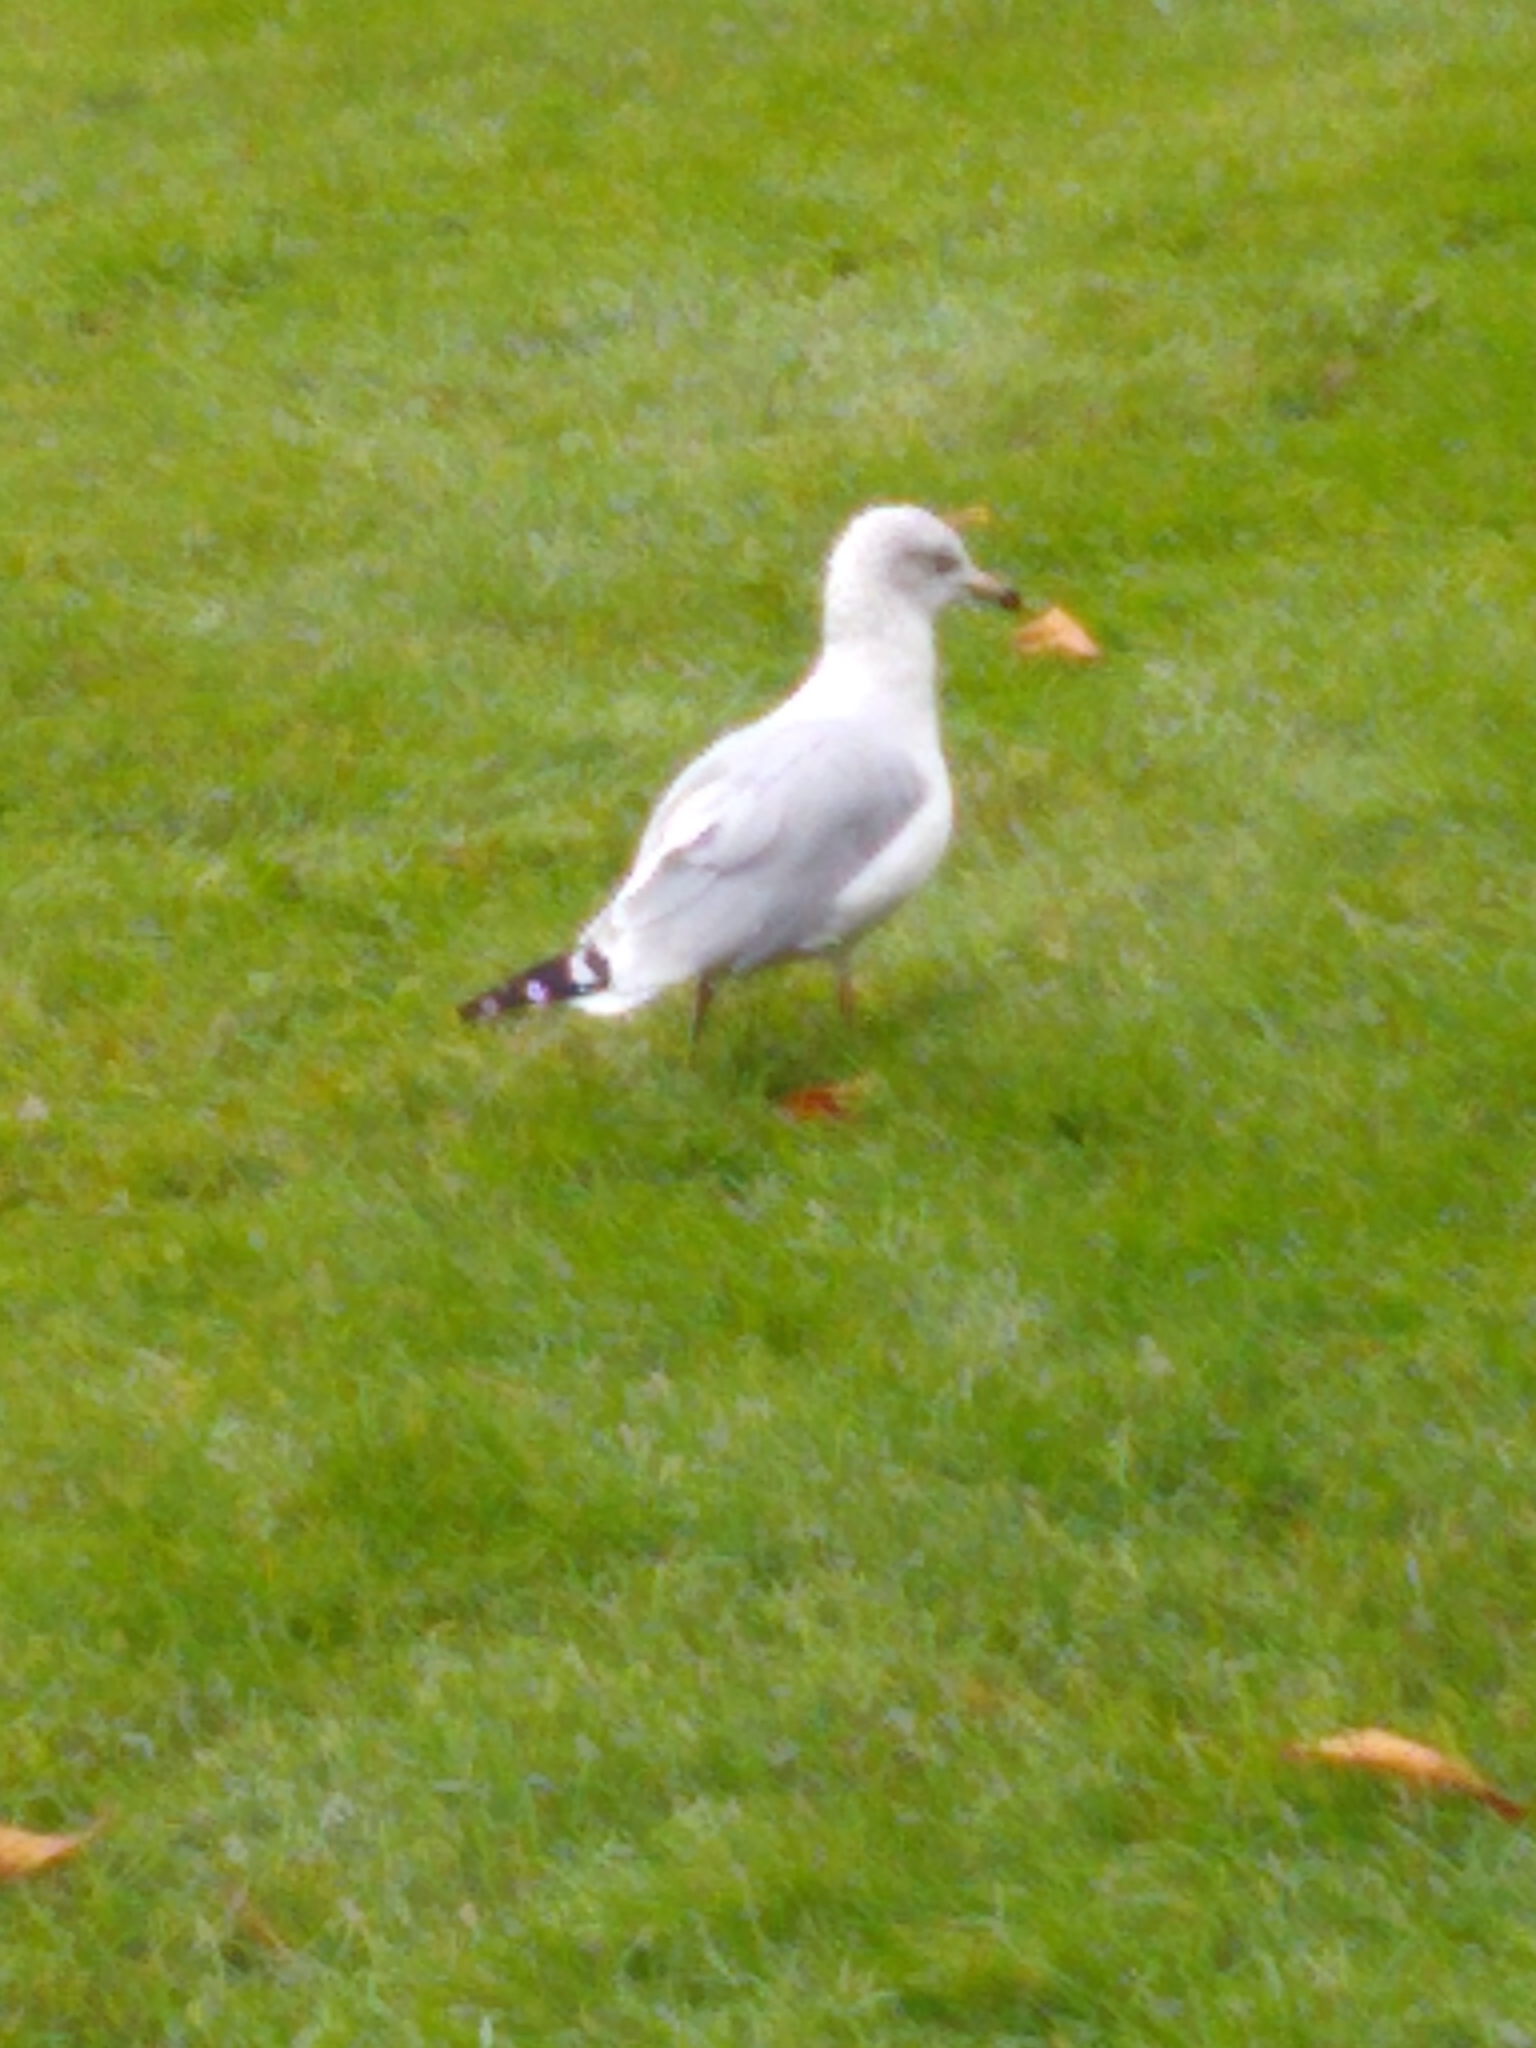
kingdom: Animalia
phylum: Chordata
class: Aves
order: Charadriiformes
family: Laridae
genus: Larus
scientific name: Larus delawarensis
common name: Ring-billed gull
